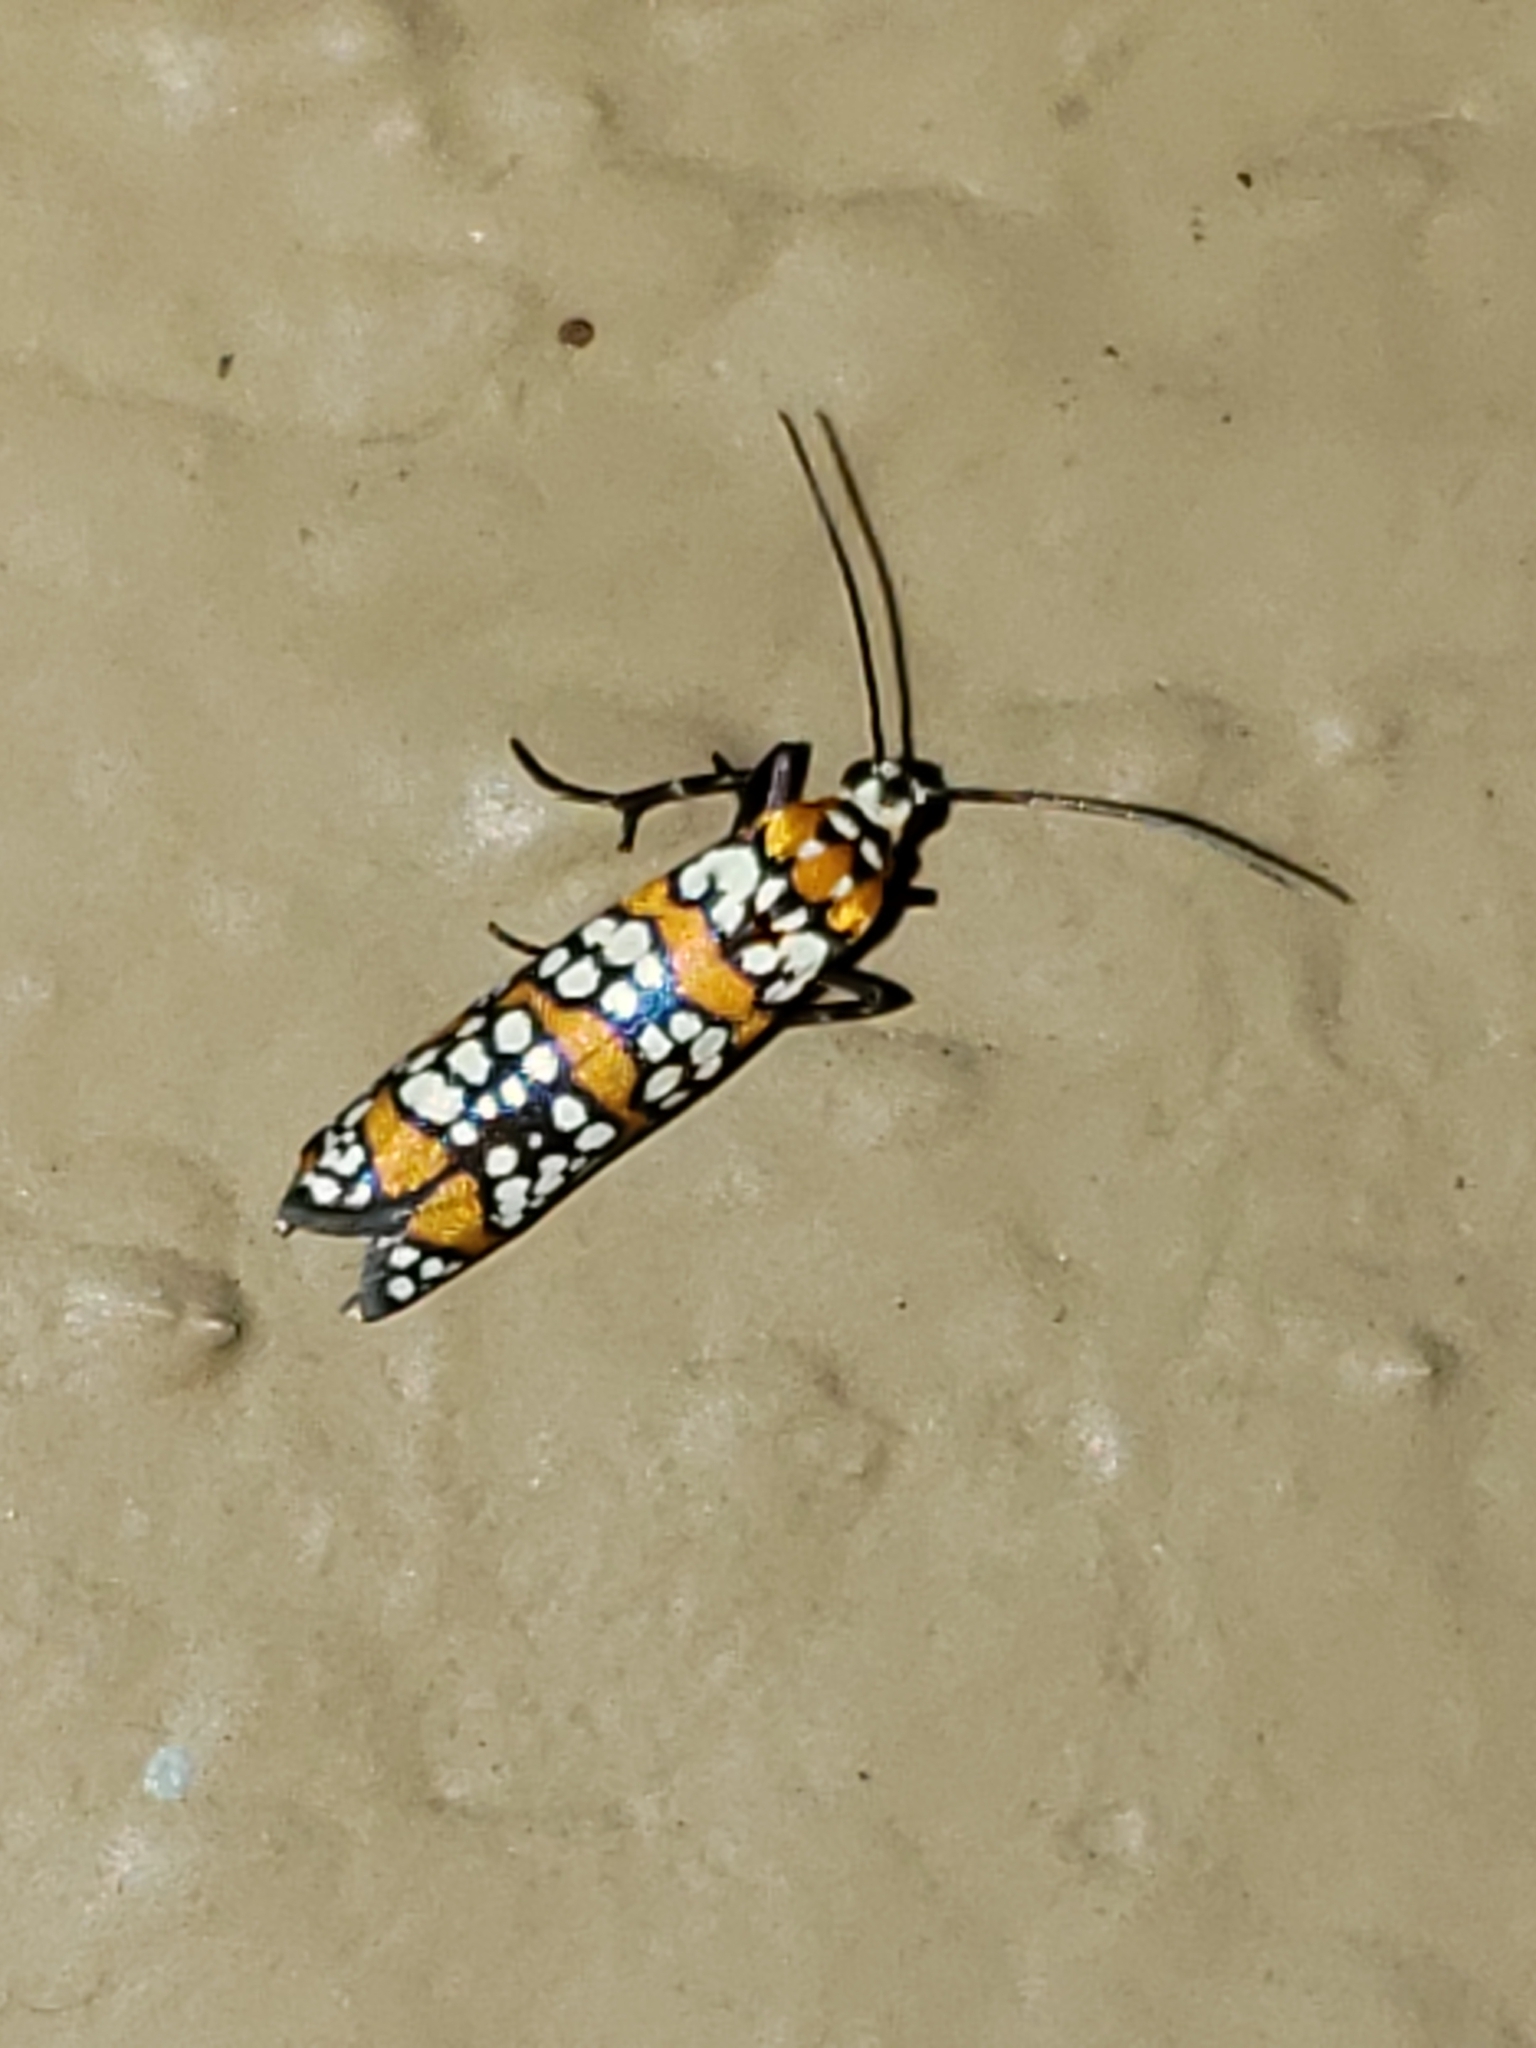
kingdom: Animalia
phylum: Arthropoda
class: Insecta
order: Lepidoptera
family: Attevidae
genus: Atteva
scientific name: Atteva punctella
